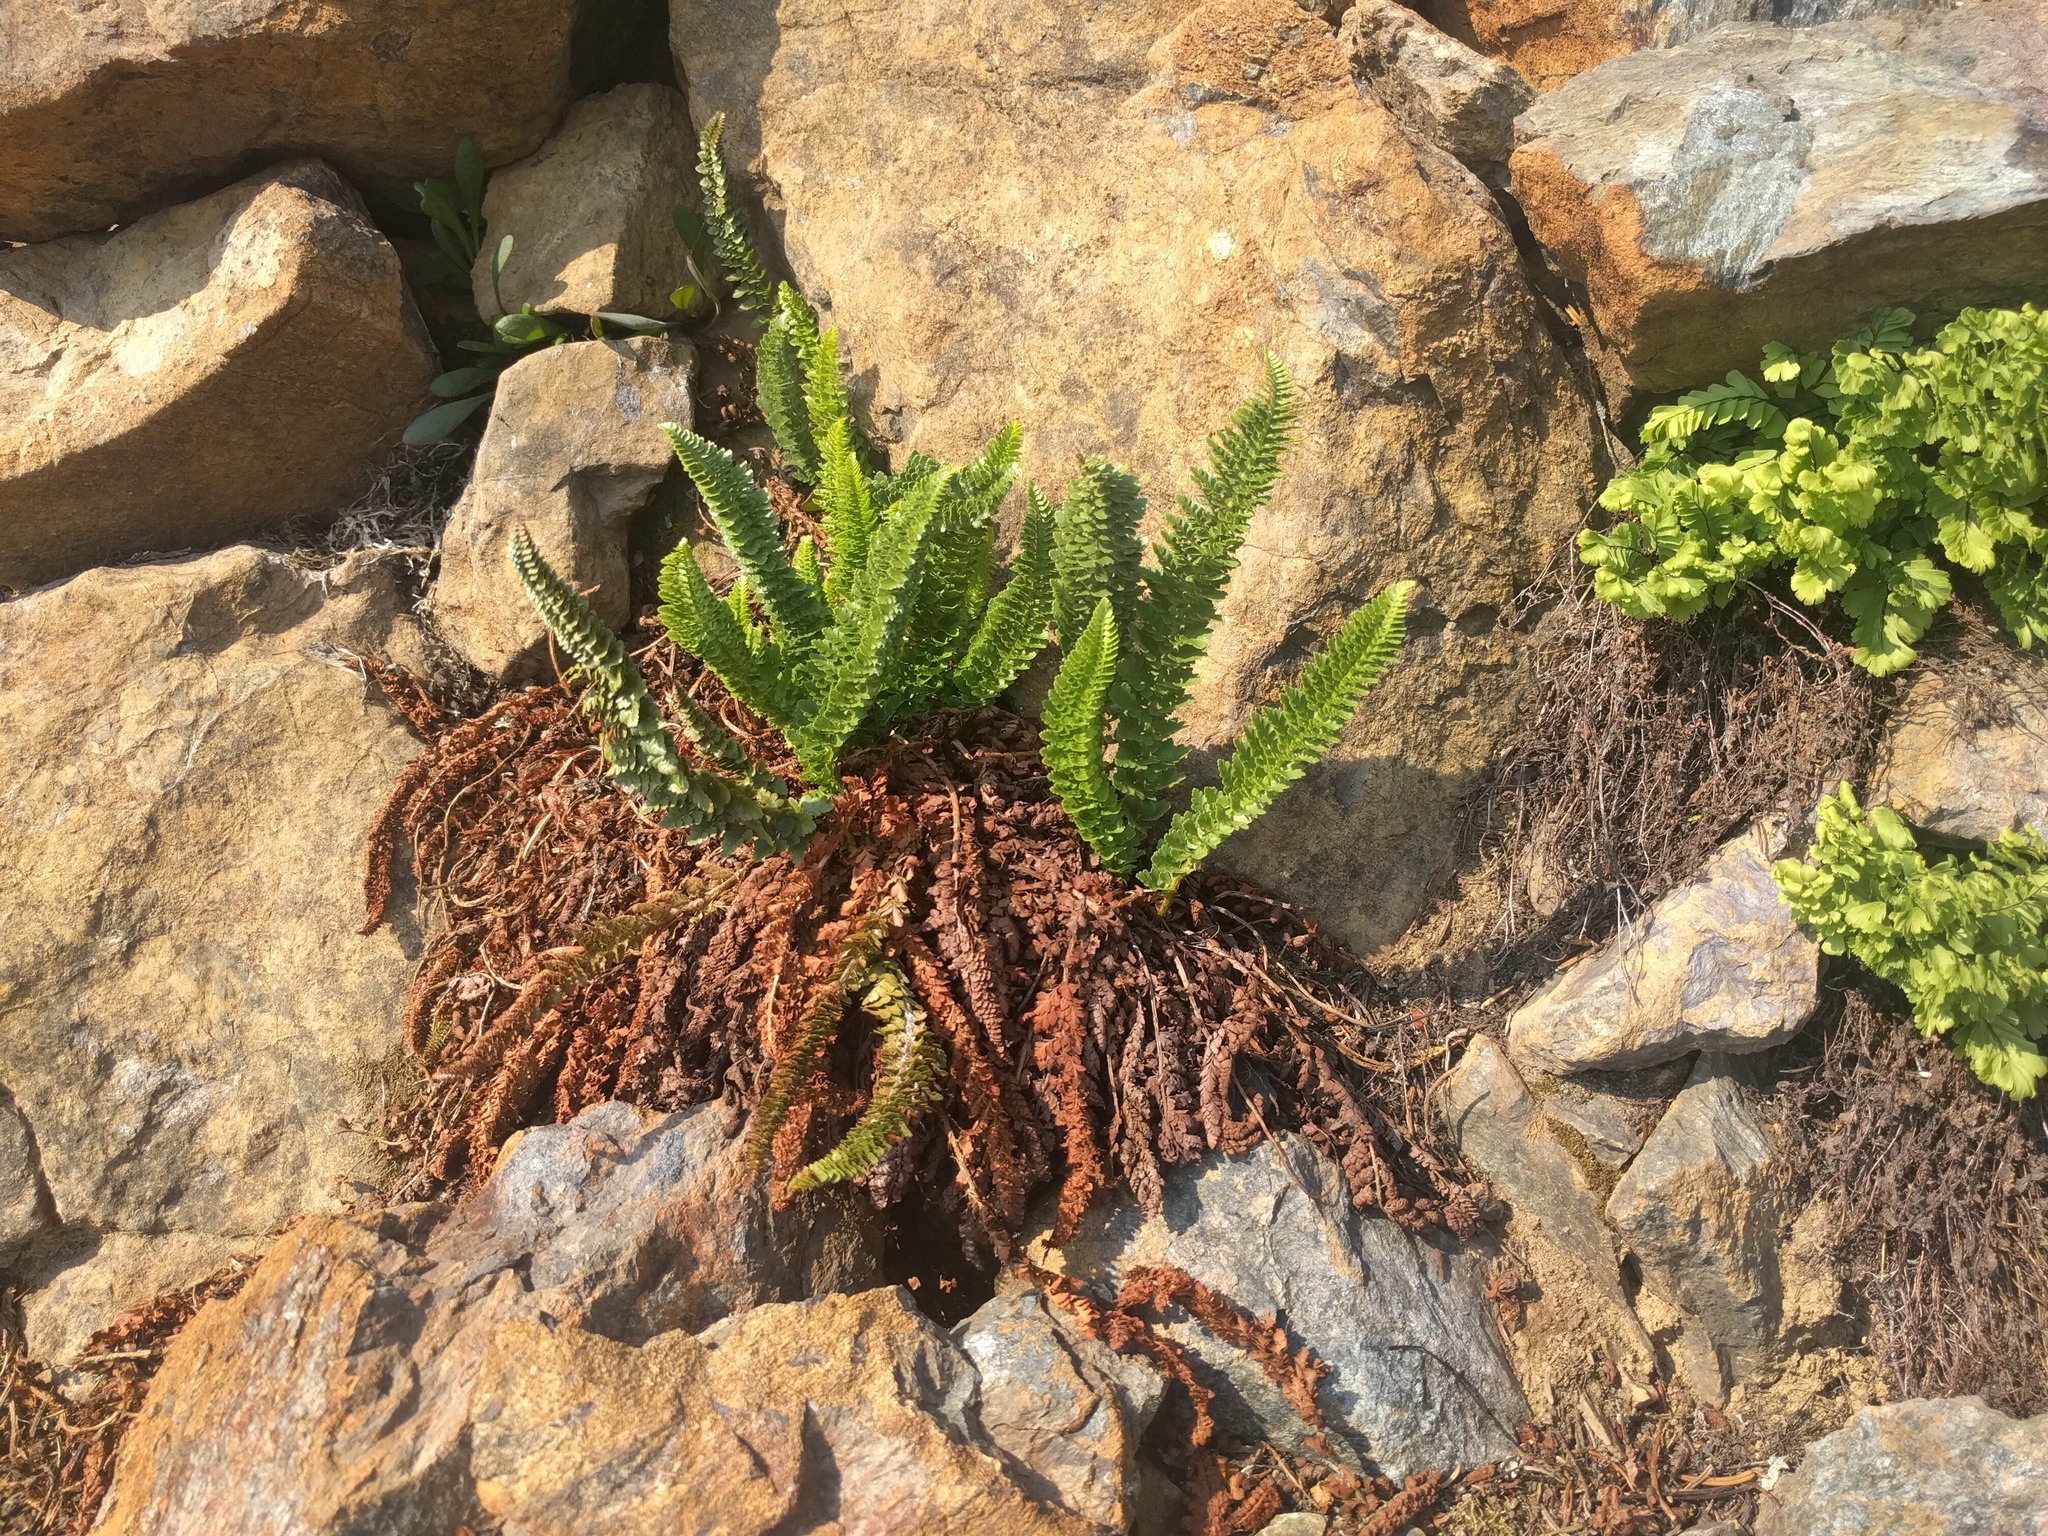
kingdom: Plantae
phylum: Tracheophyta
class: Polypodiopsida
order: Polypodiales
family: Dryopteridaceae
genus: Polystichum
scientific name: Polystichum lemmonii
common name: Lemmon's holly fern
